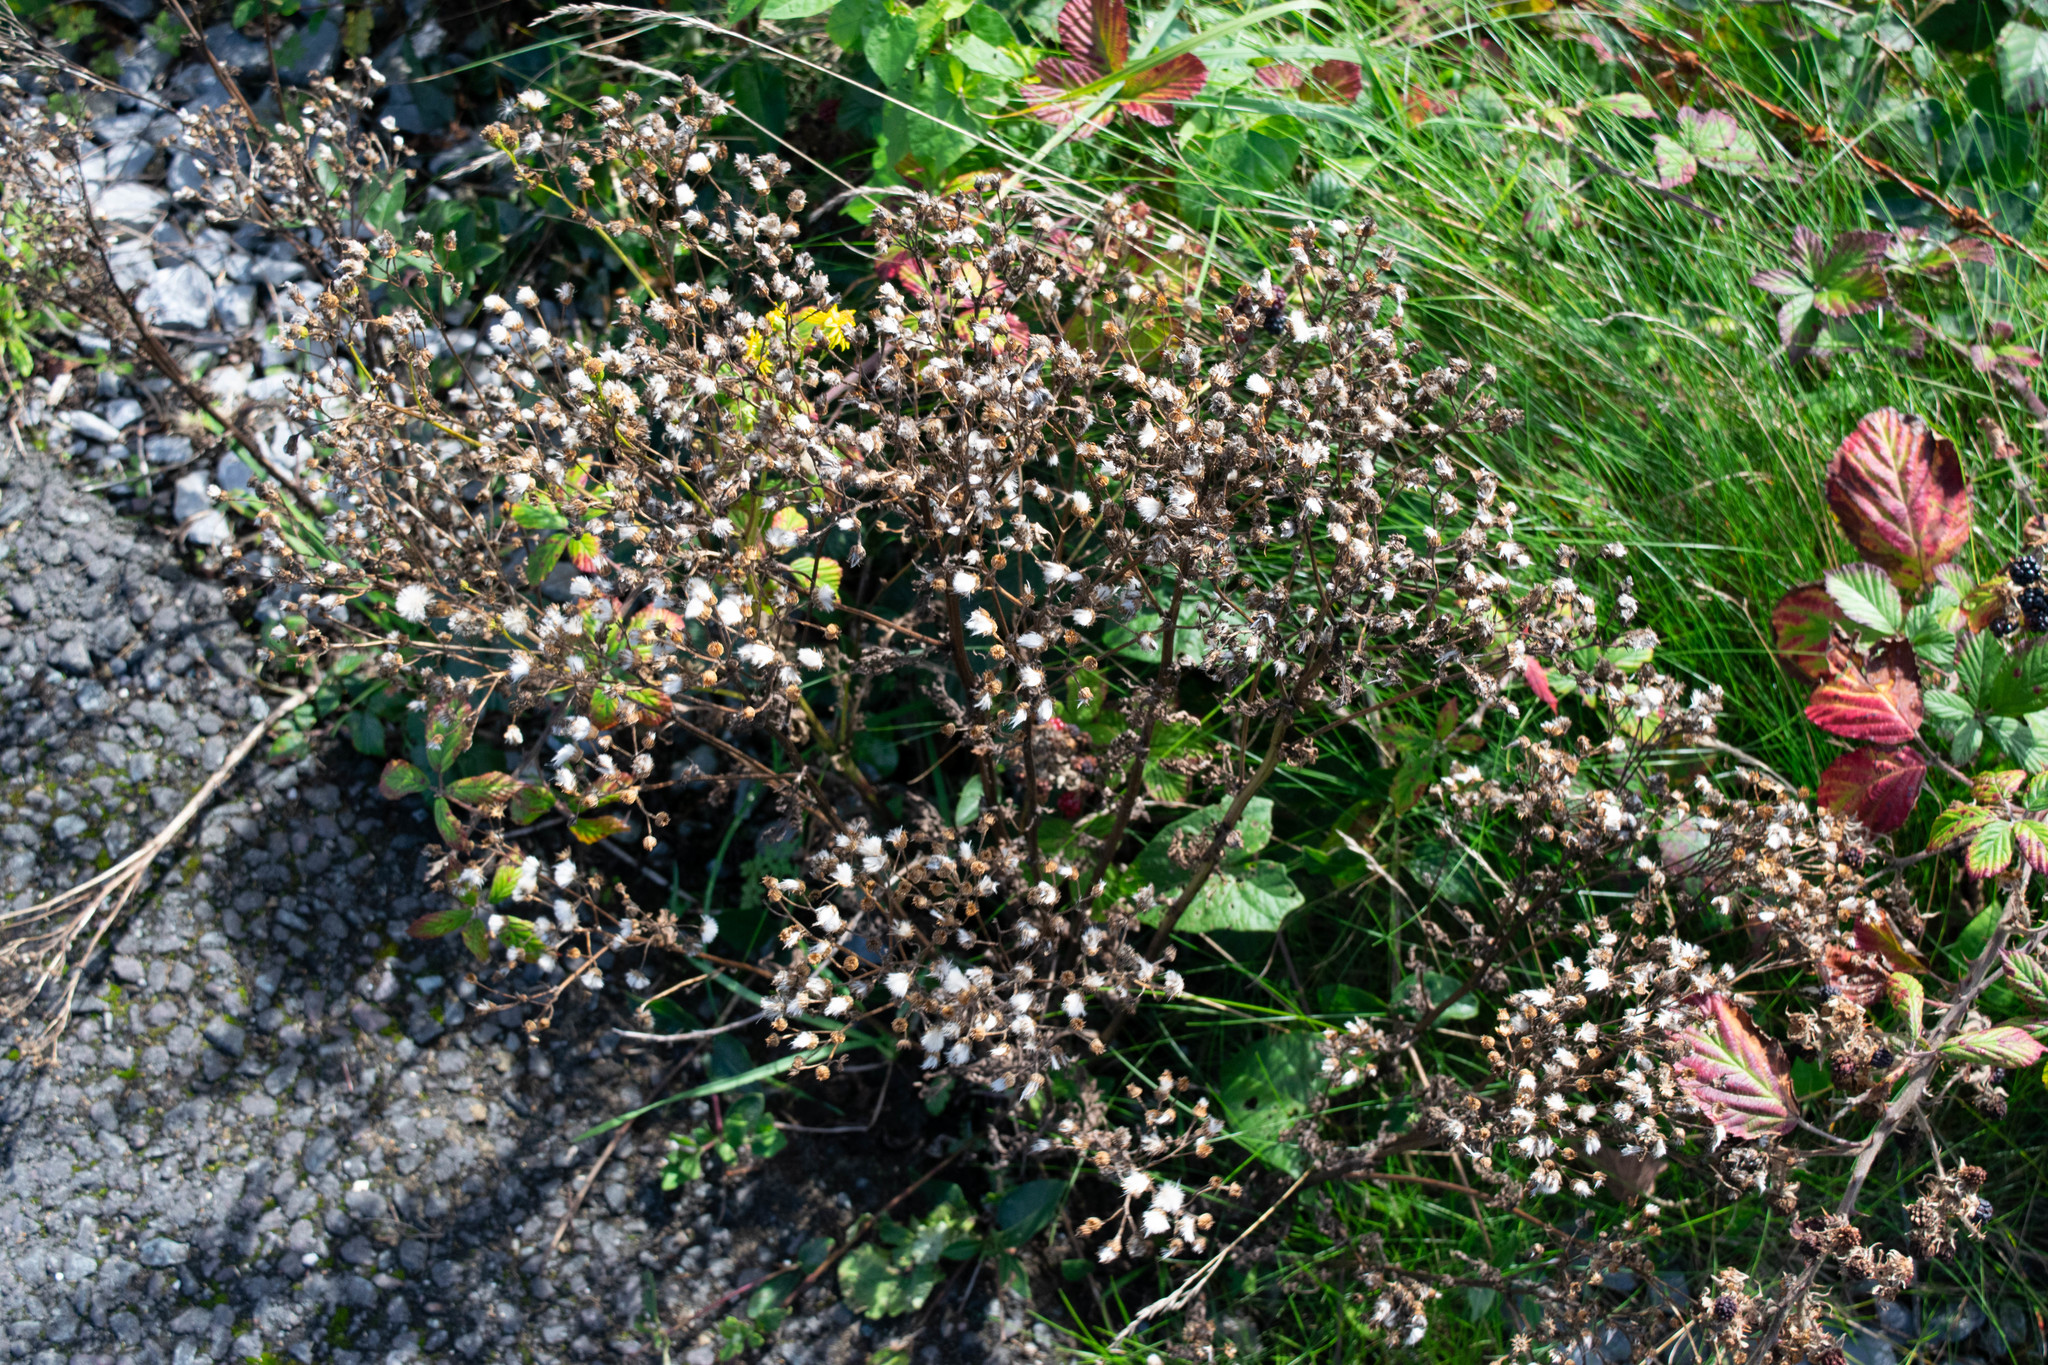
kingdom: Plantae
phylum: Tracheophyta
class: Magnoliopsida
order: Asterales
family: Asteraceae
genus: Petasites
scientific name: Petasites hybridus
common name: Butterbur
